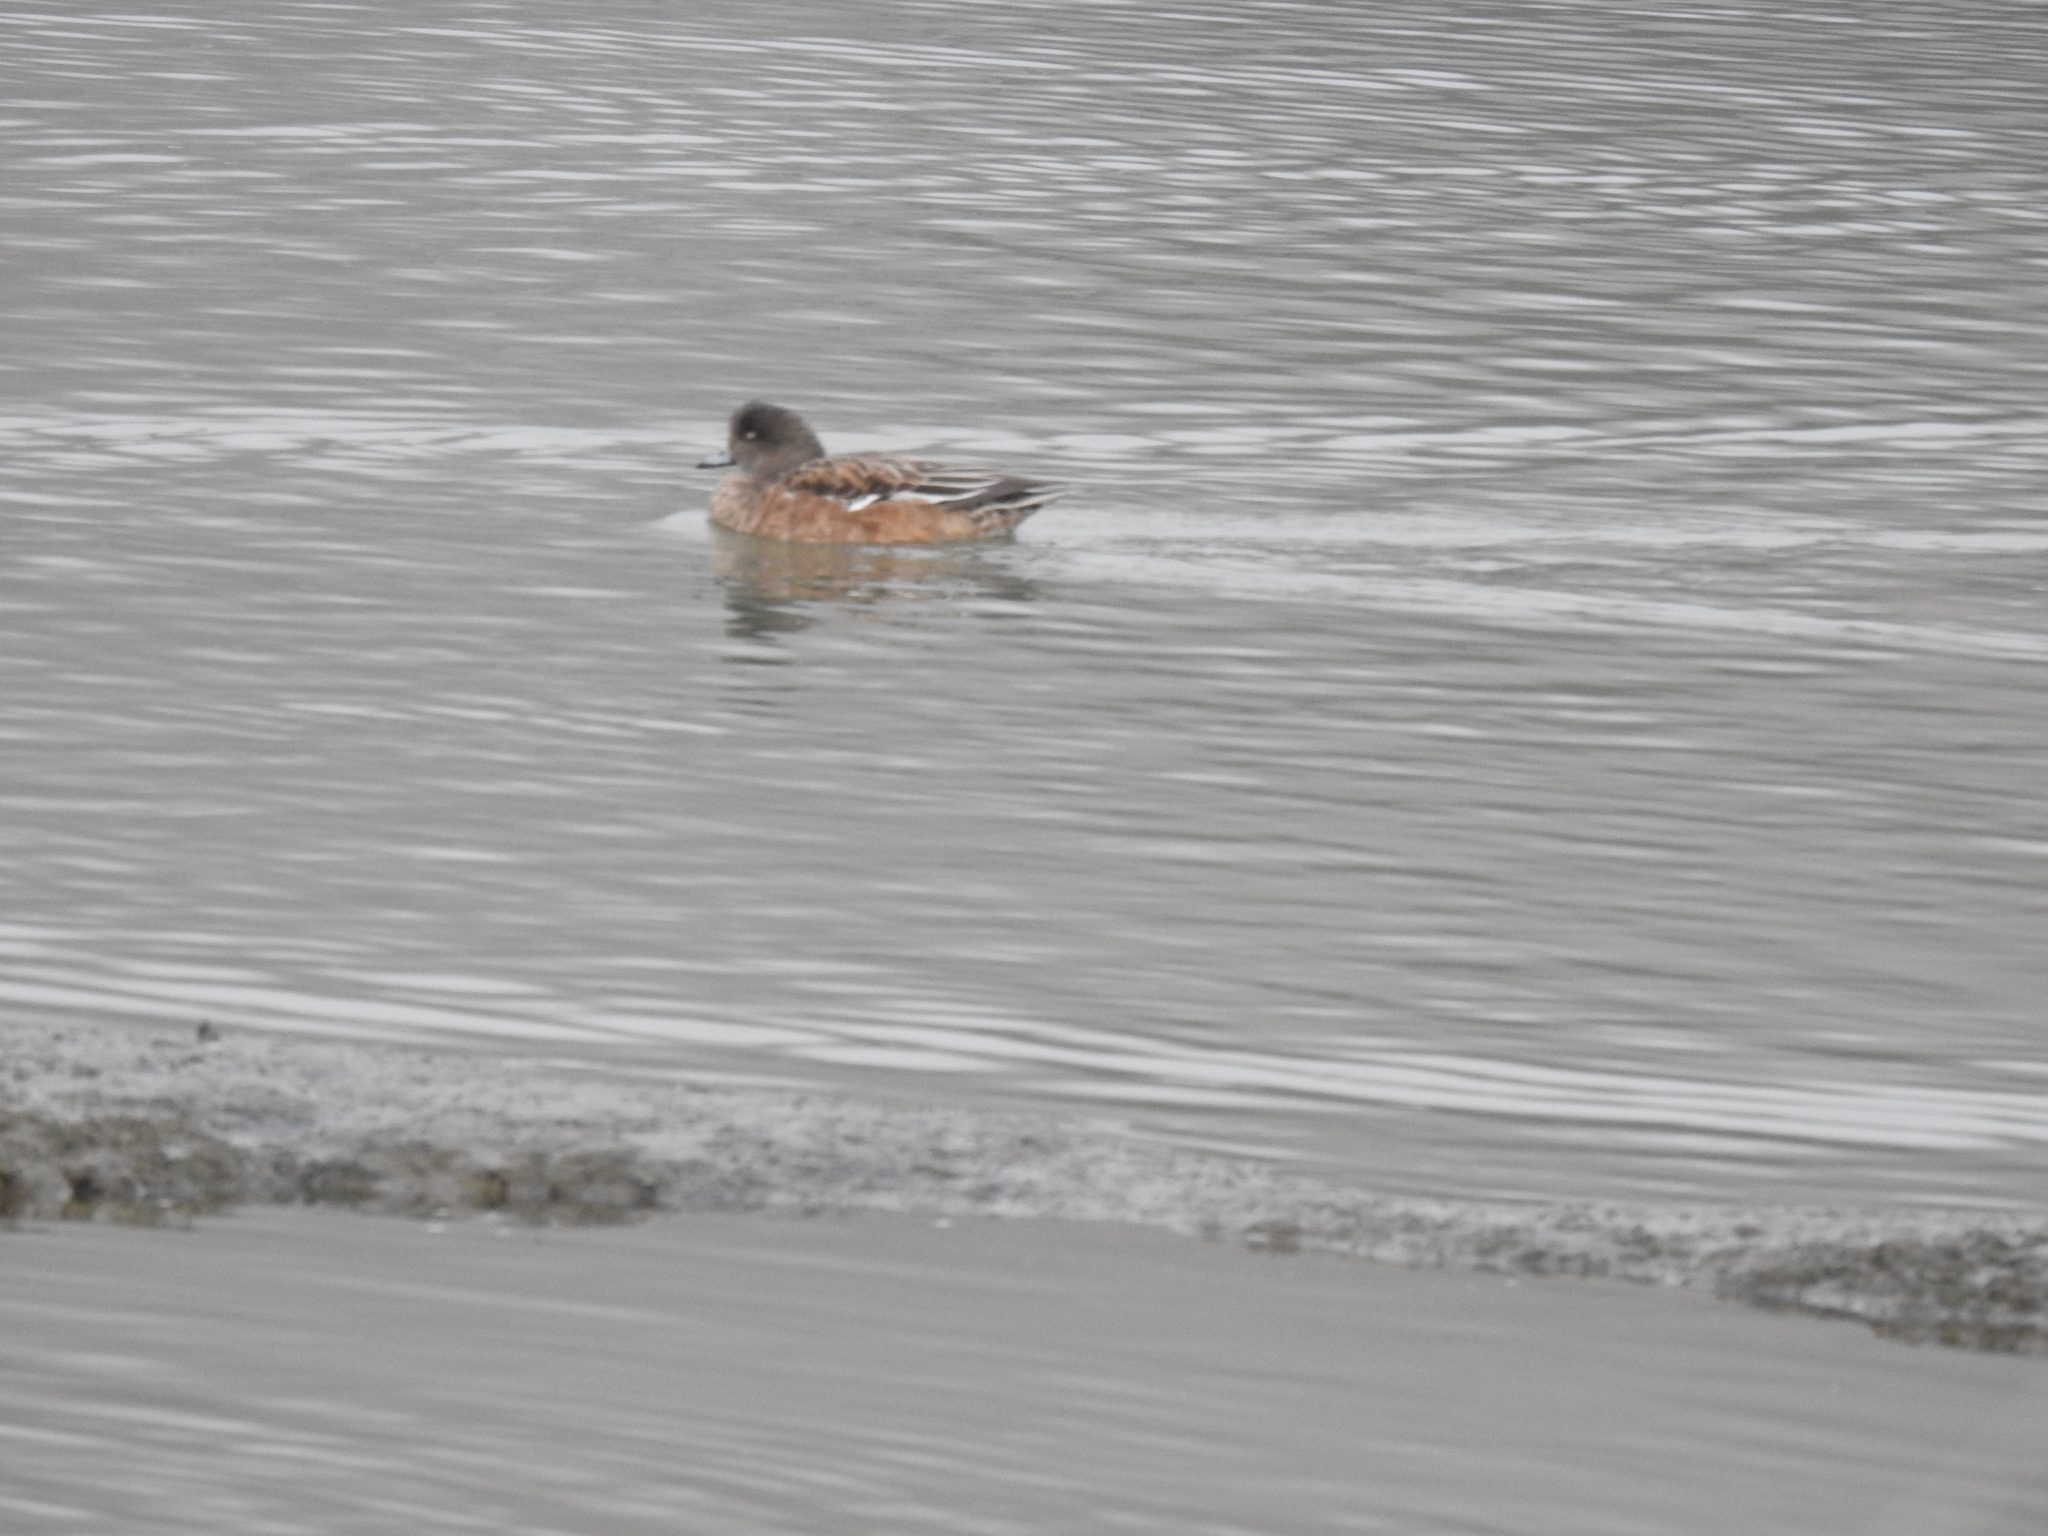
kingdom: Animalia
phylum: Chordata
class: Aves
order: Anseriformes
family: Anatidae
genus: Mareca
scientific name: Mareca americana
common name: American wigeon
